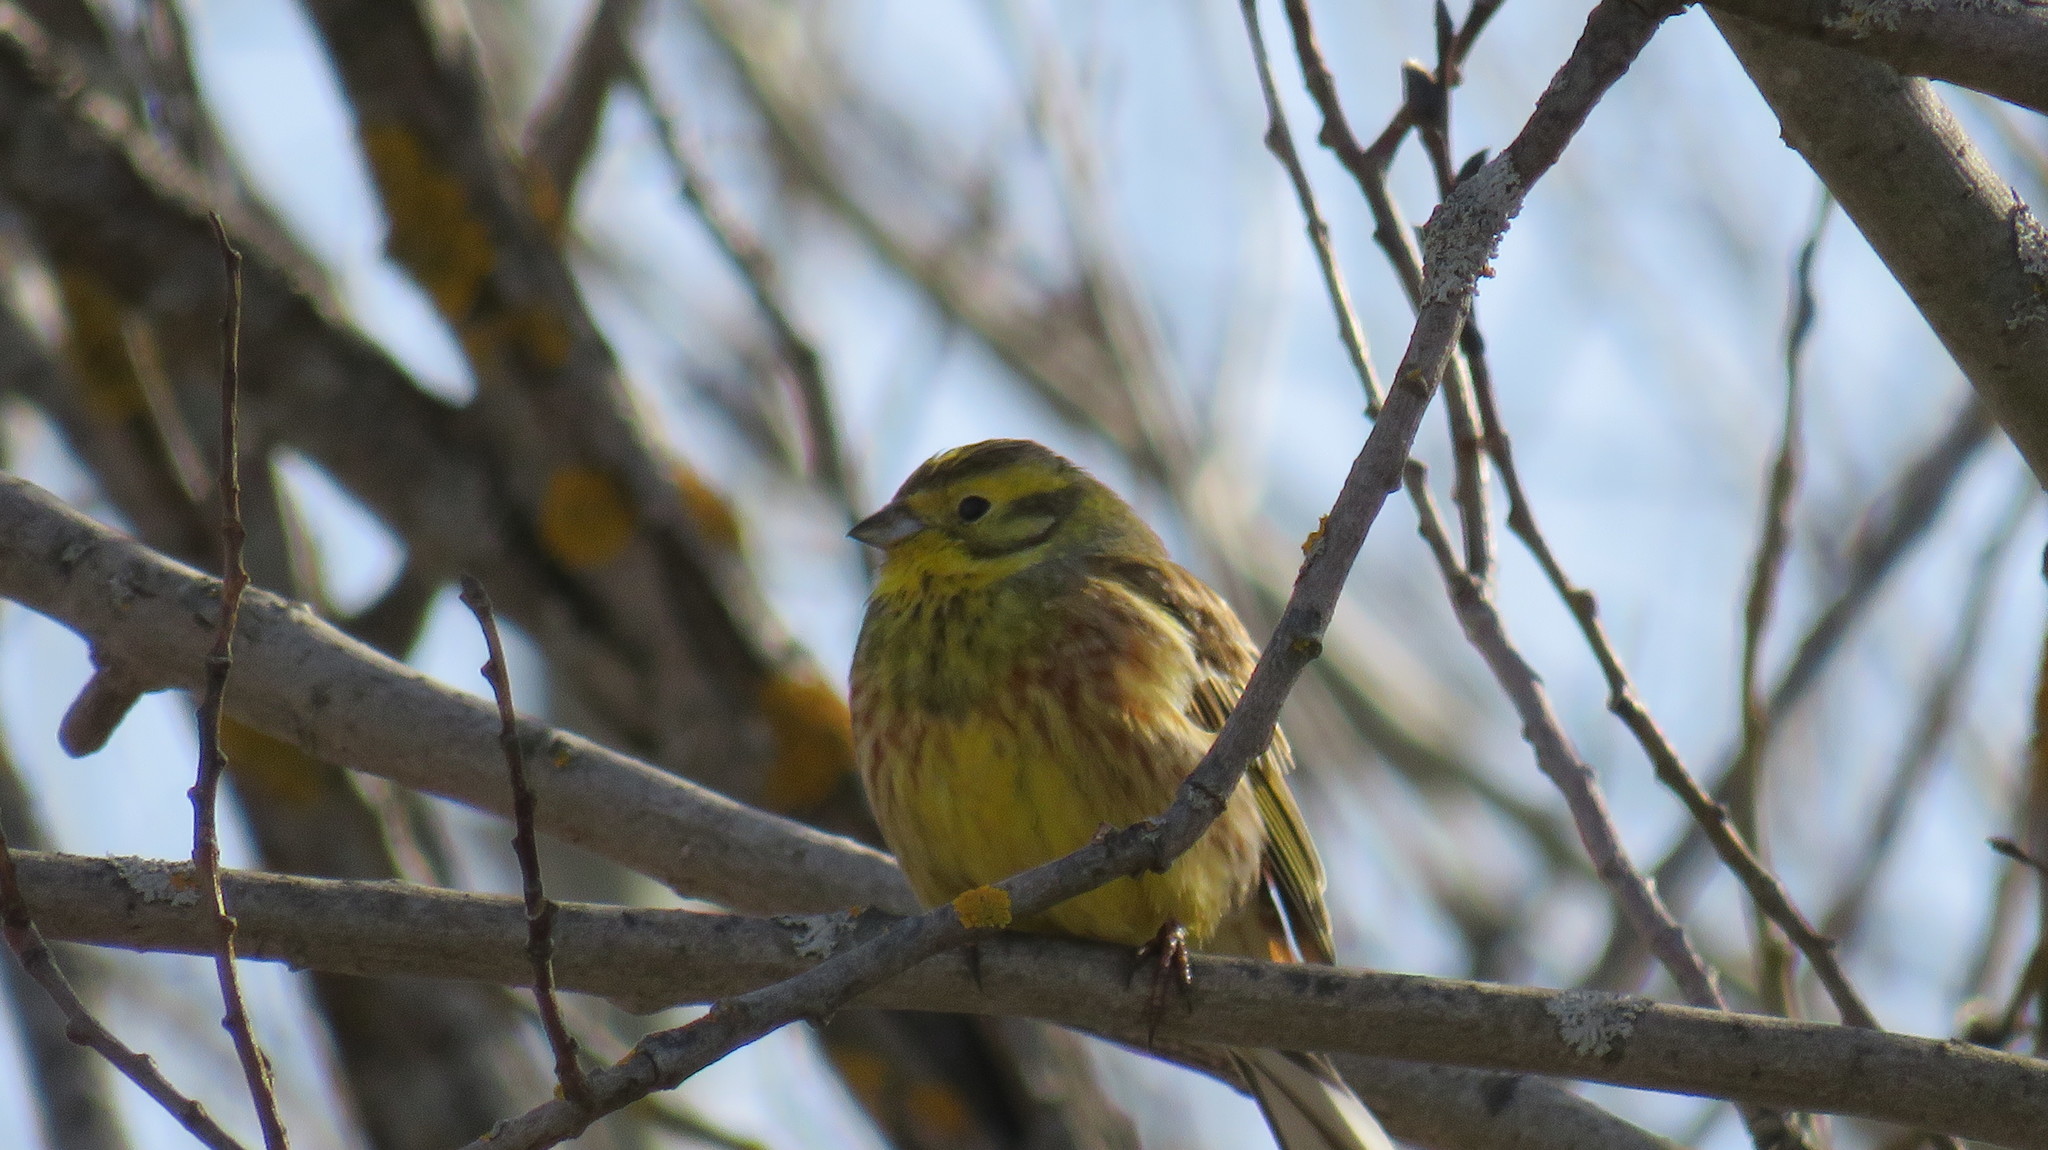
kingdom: Animalia
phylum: Chordata
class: Aves
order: Passeriformes
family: Emberizidae
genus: Emberiza
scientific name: Emberiza citrinella
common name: Yellowhammer
